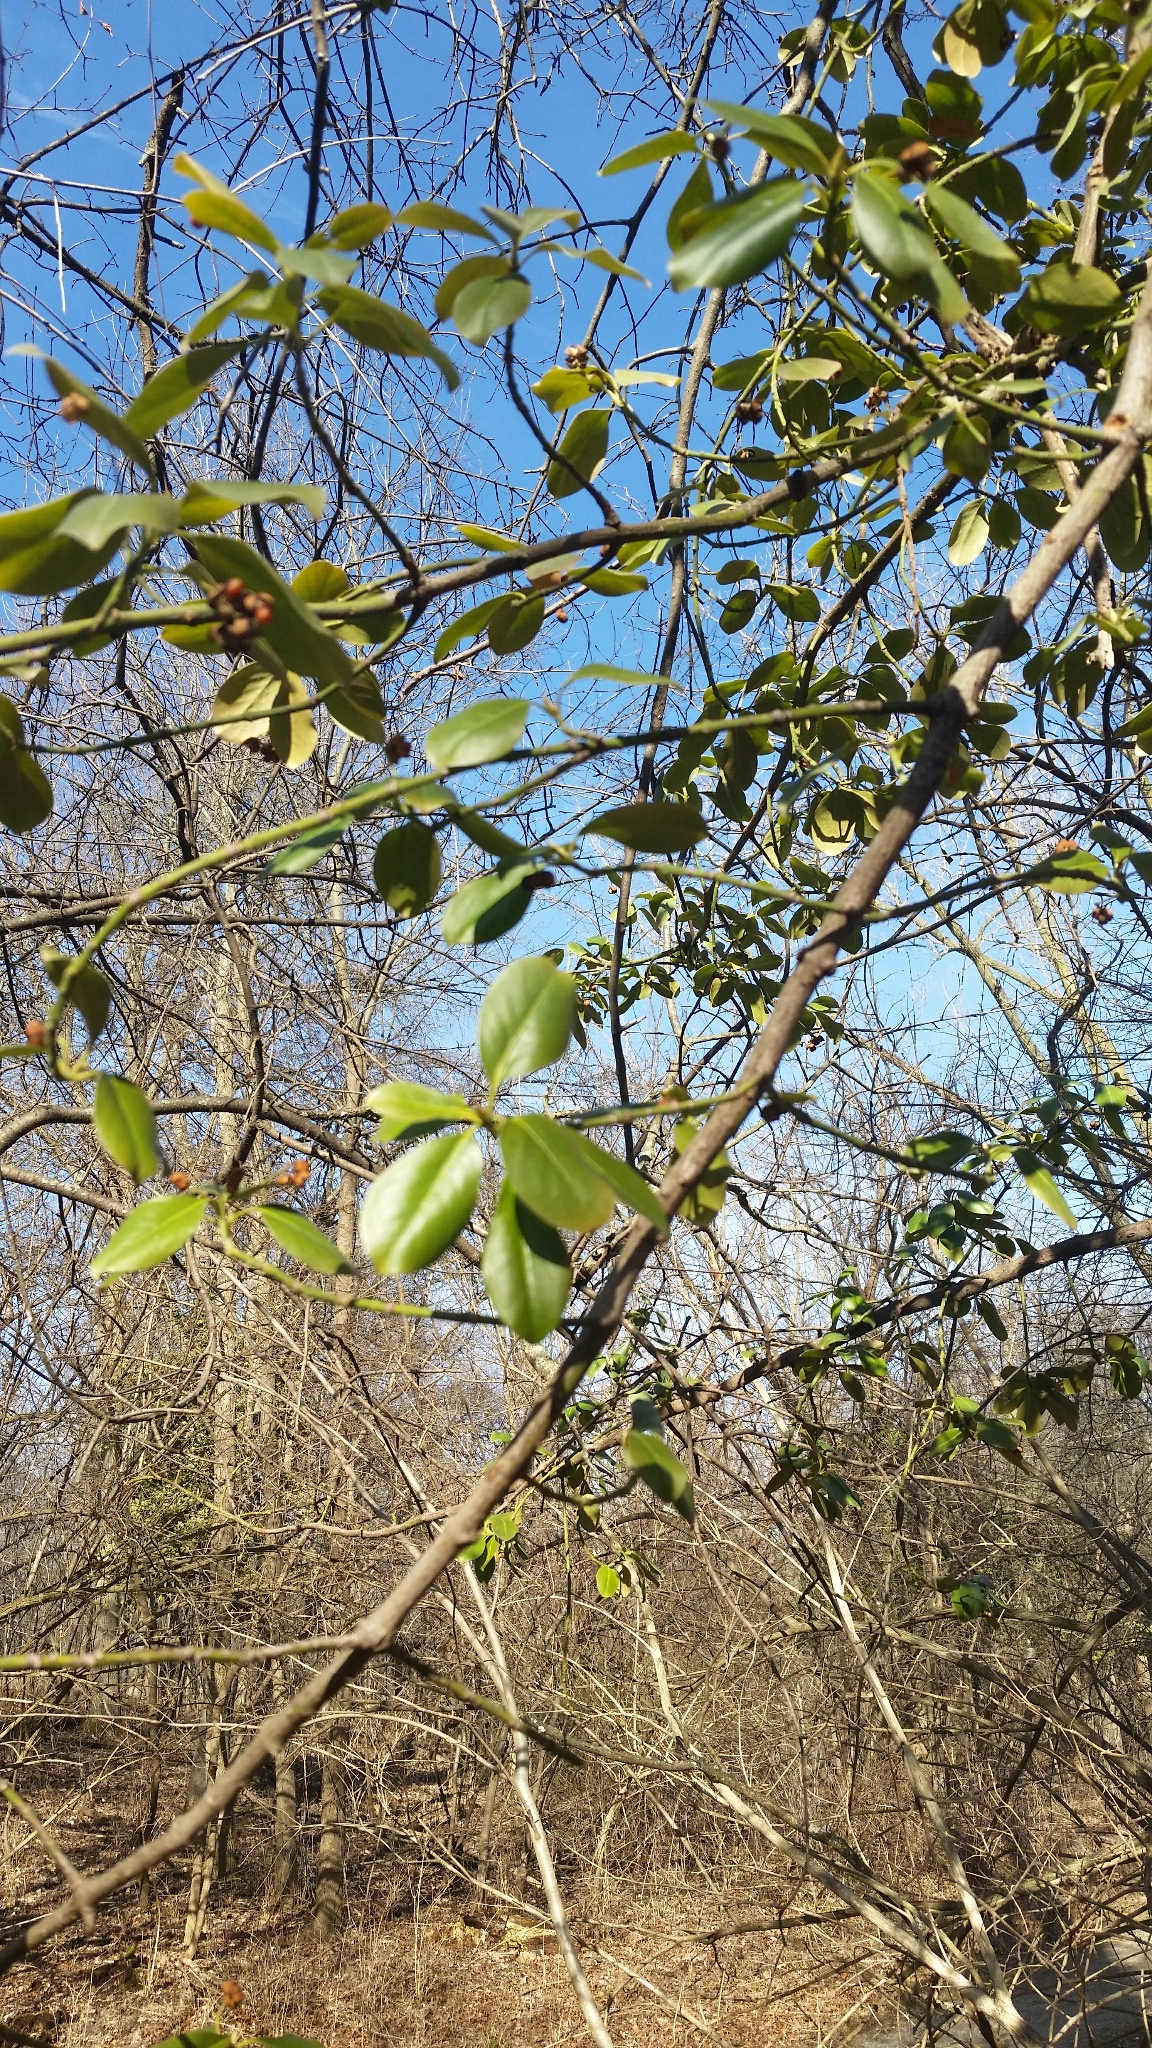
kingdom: Plantae
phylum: Tracheophyta
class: Magnoliopsida
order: Celastrales
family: Celastraceae
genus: Euonymus
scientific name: Euonymus fortunei
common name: Climbing euonymus
